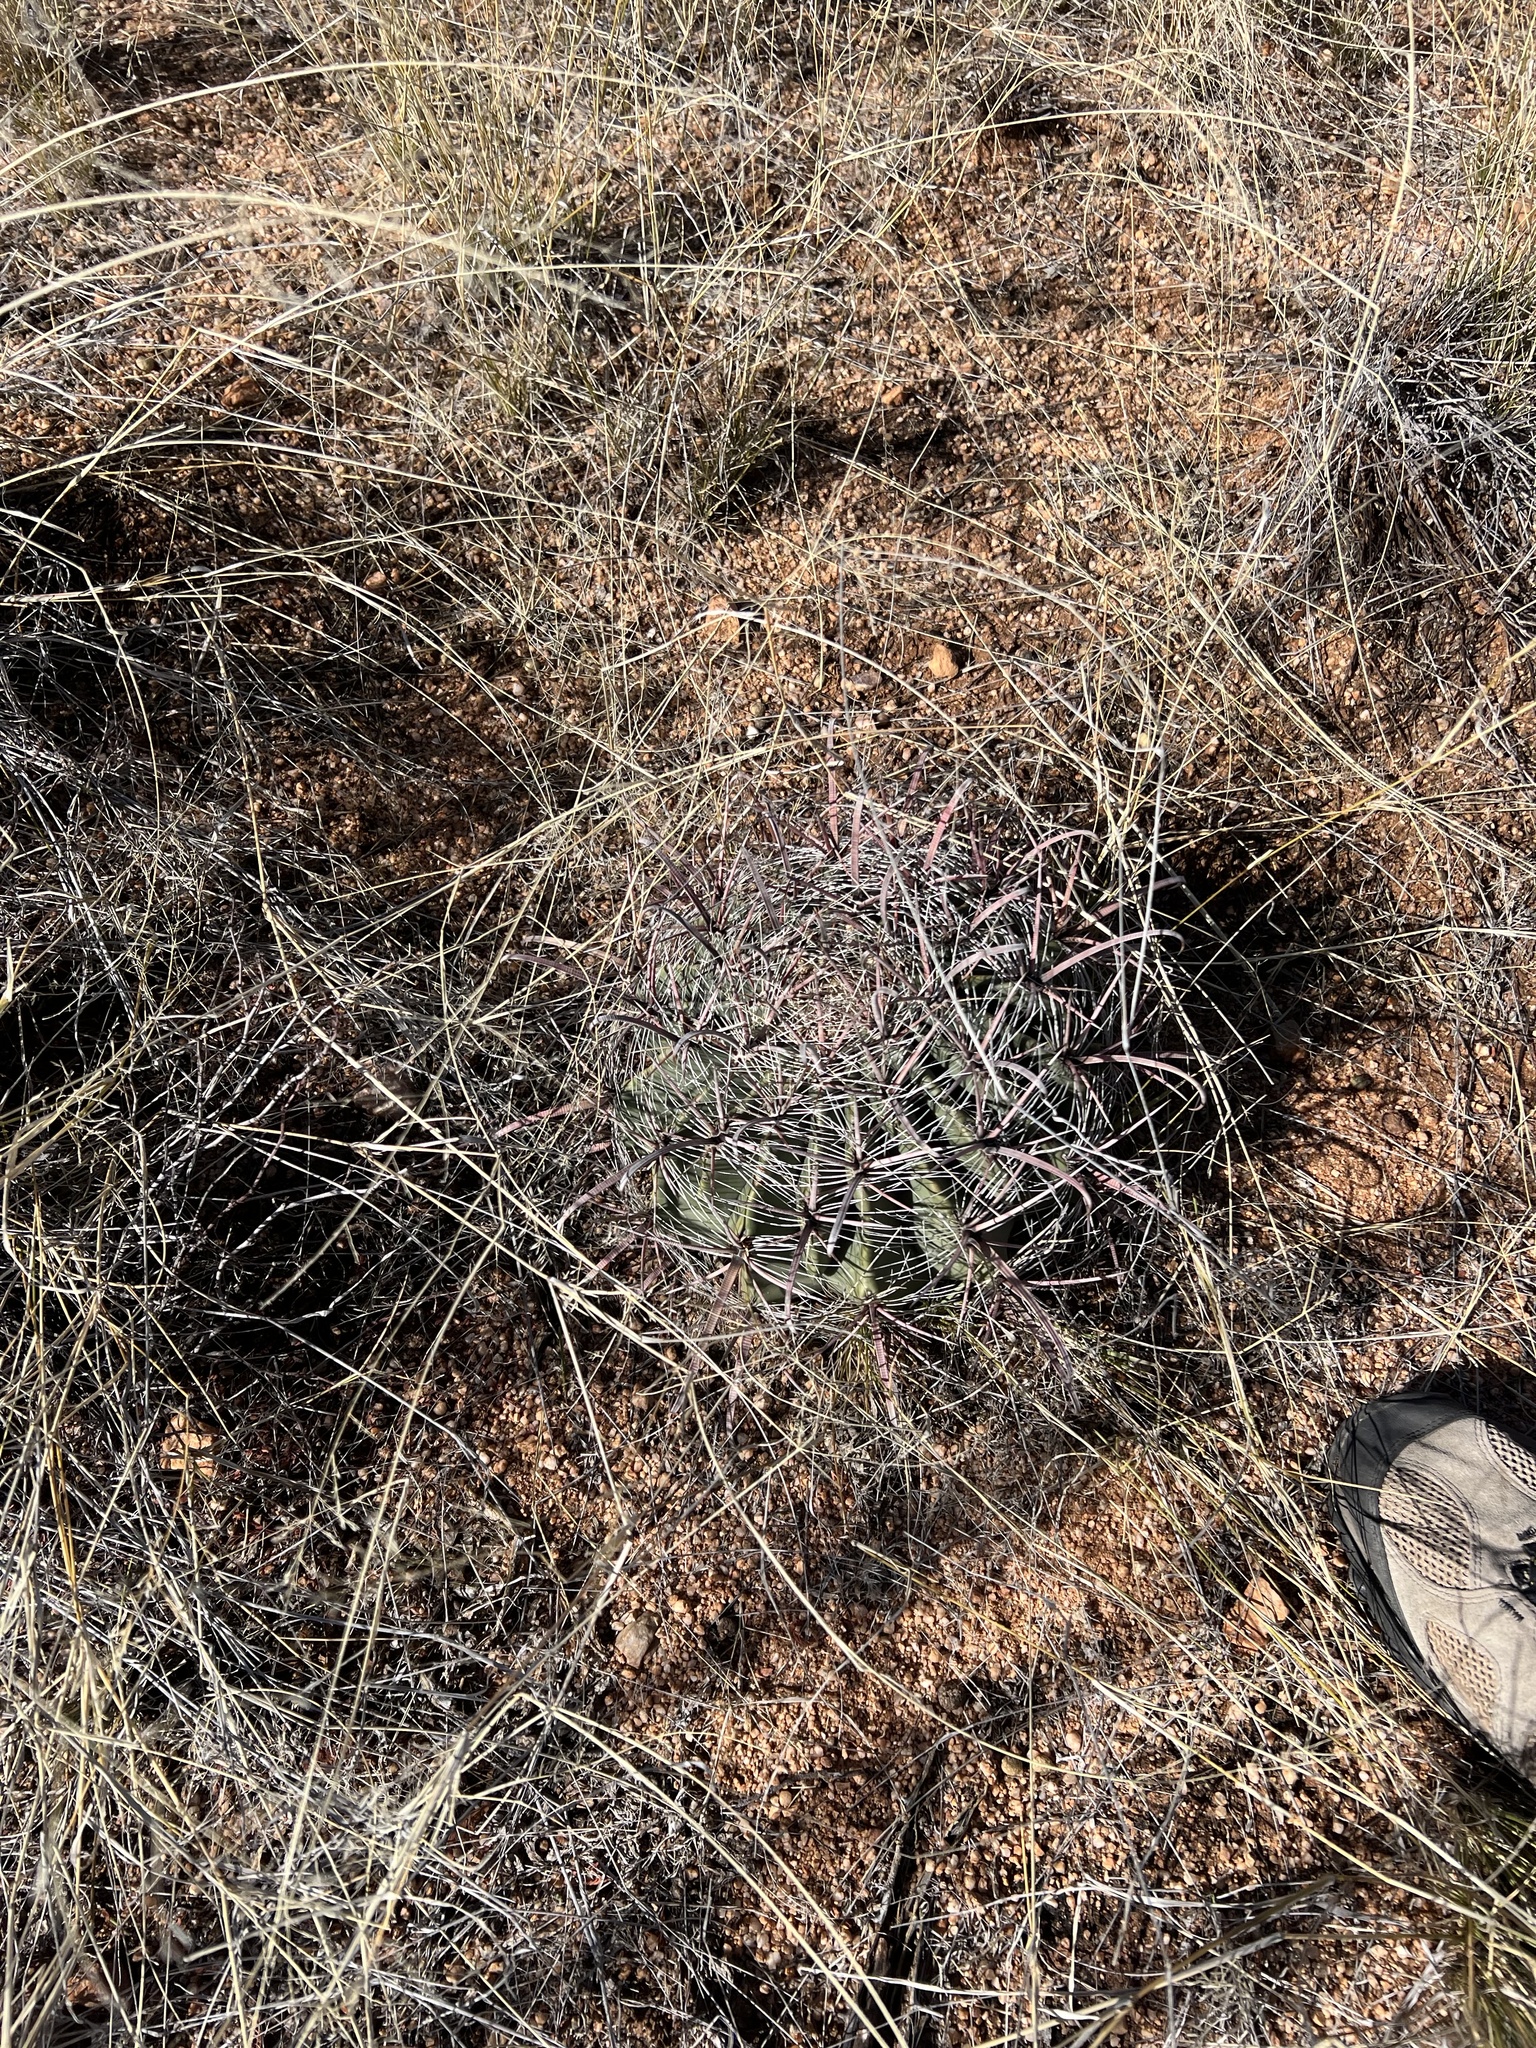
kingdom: Plantae
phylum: Tracheophyta
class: Magnoliopsida
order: Caryophyllales
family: Cactaceae
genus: Ferocactus
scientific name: Ferocactus wislizeni
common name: Candy barrel cactus
